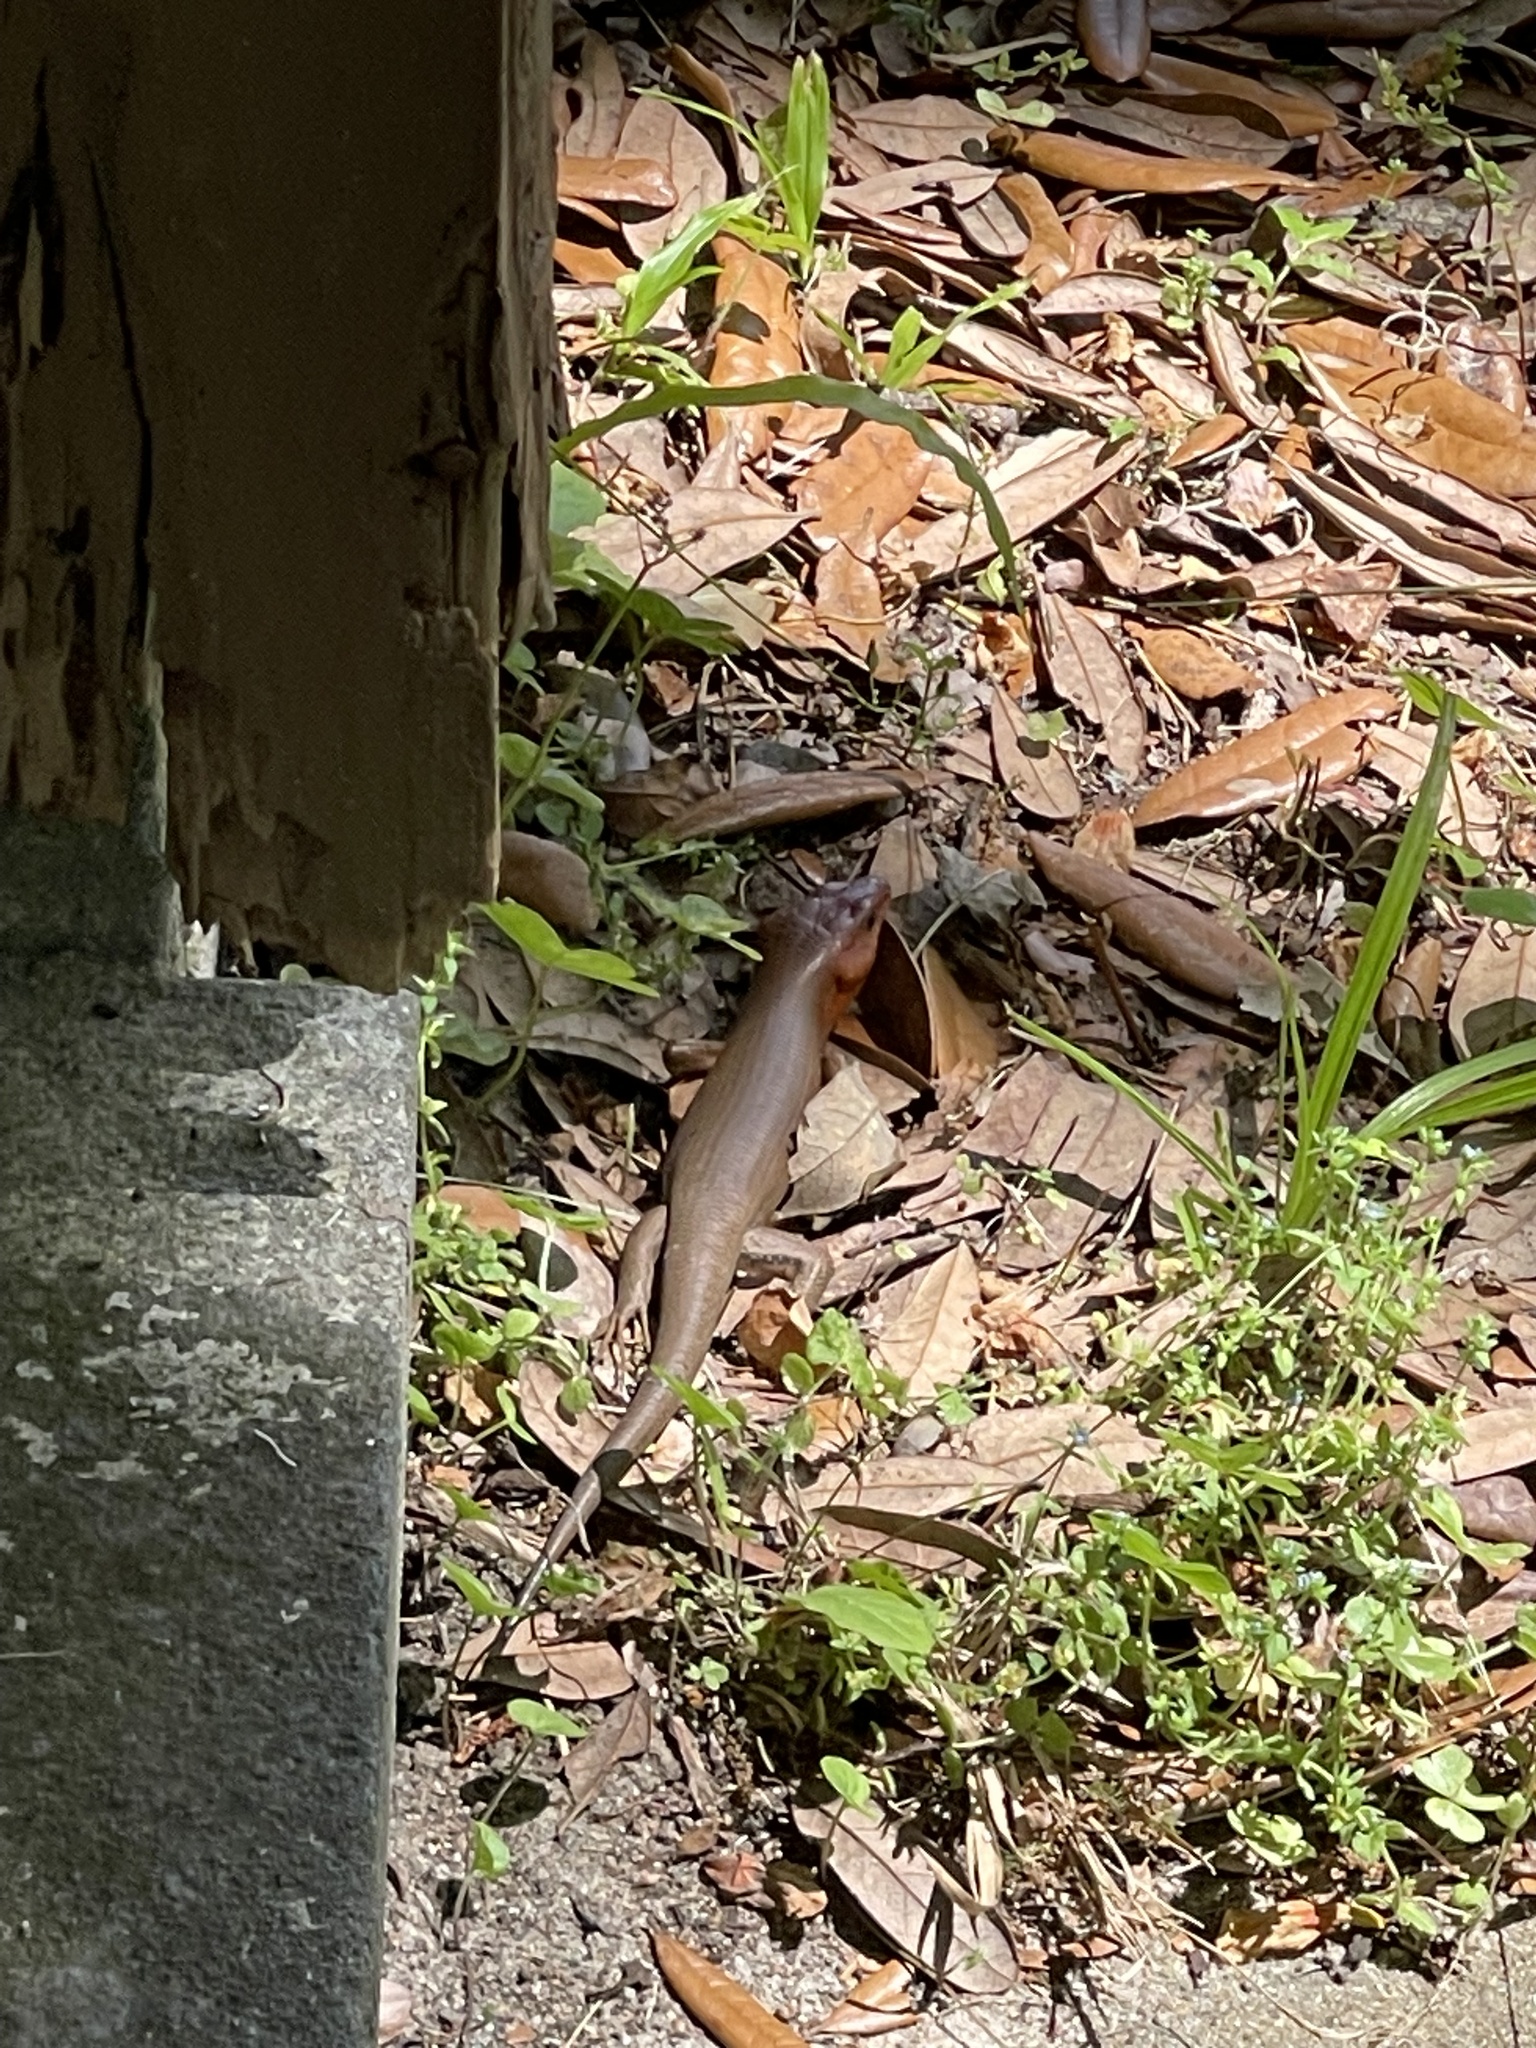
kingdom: Animalia
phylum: Chordata
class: Squamata
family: Scincidae
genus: Plestiodon
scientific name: Plestiodon laticeps
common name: Broadhead skink
